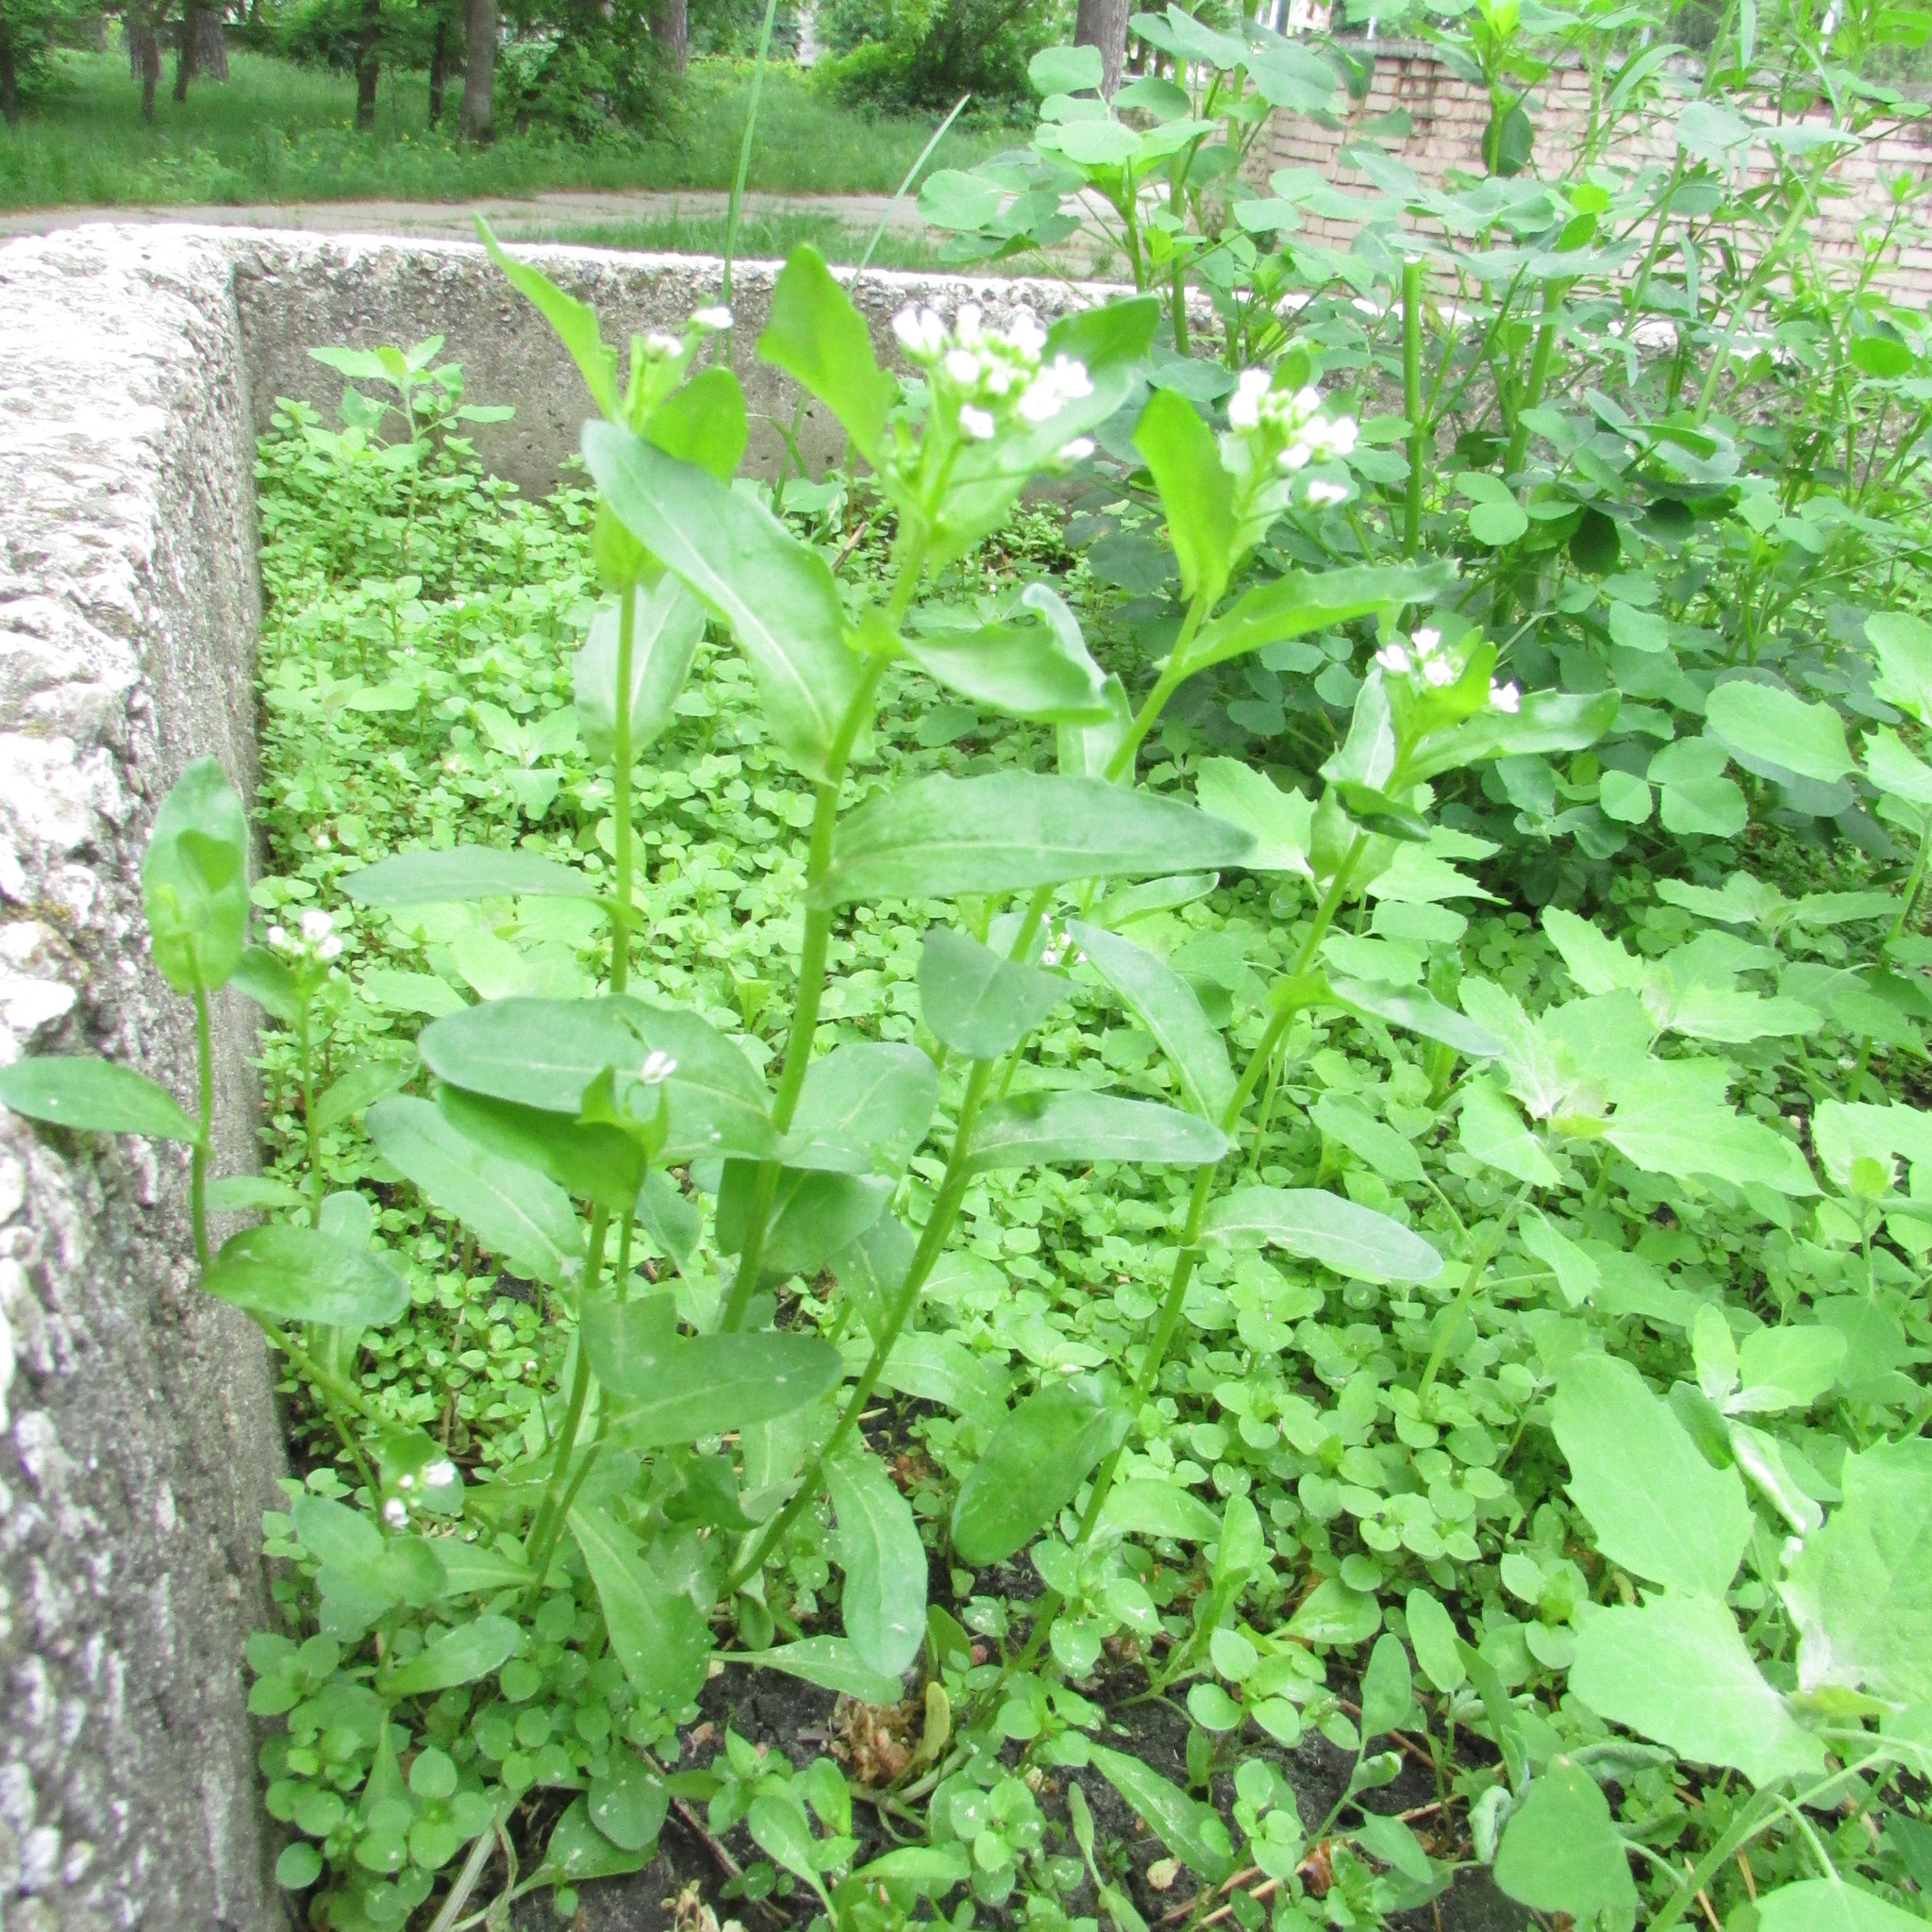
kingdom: Plantae
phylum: Tracheophyta
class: Magnoliopsida
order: Brassicales
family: Brassicaceae
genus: Thlaspi
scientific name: Thlaspi arvense
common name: Field pennycress
